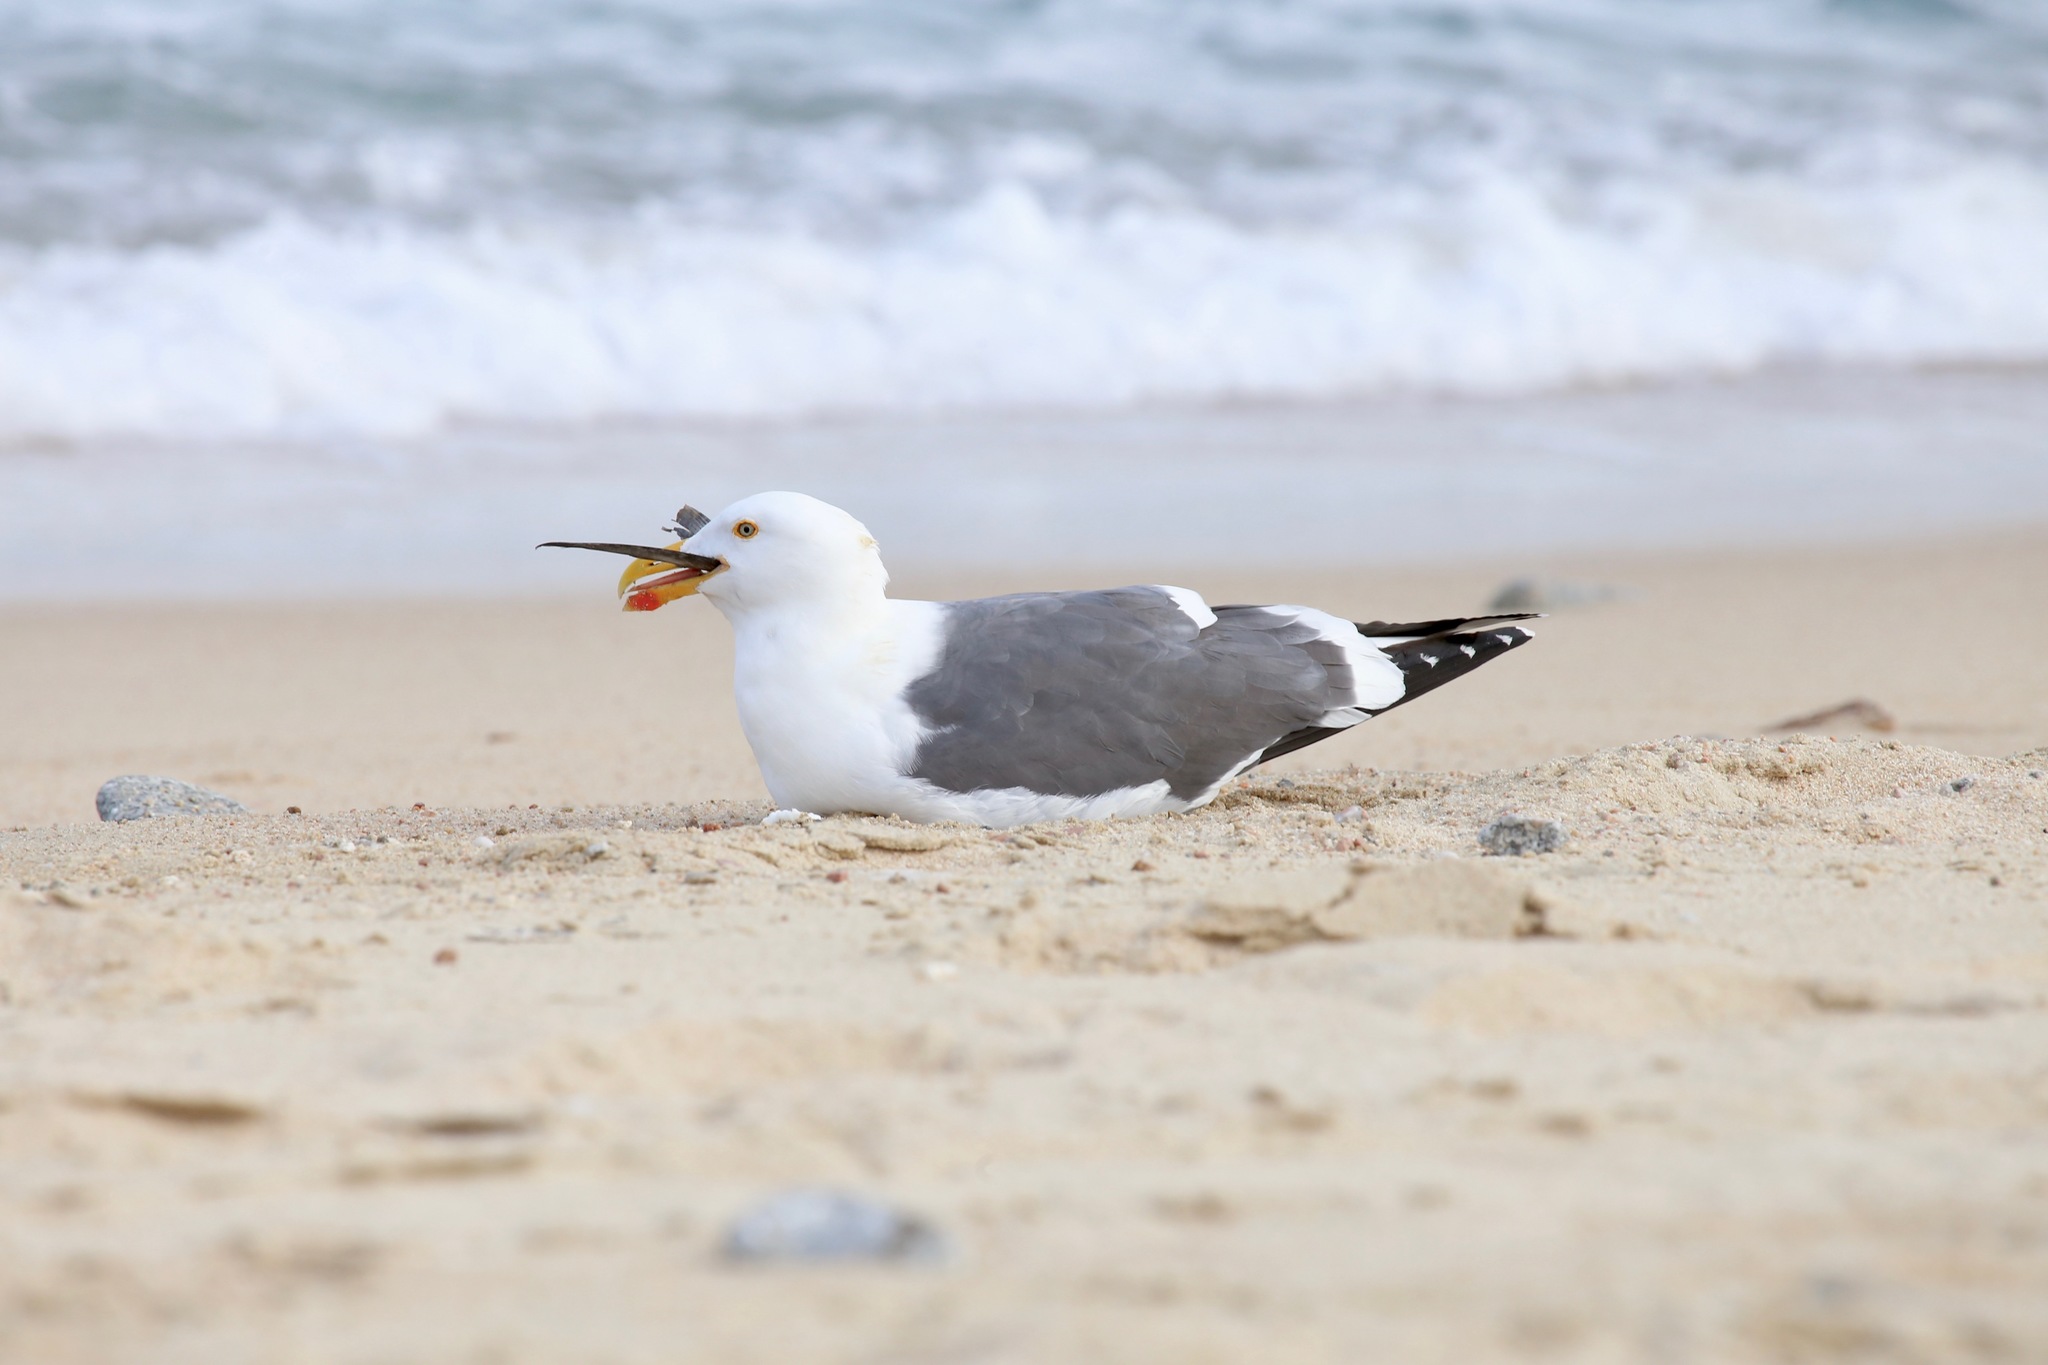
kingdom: Animalia
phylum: Chordata
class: Aves
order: Charadriiformes
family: Laridae
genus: Larus
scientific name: Larus livens
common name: Yellow-footed gull
